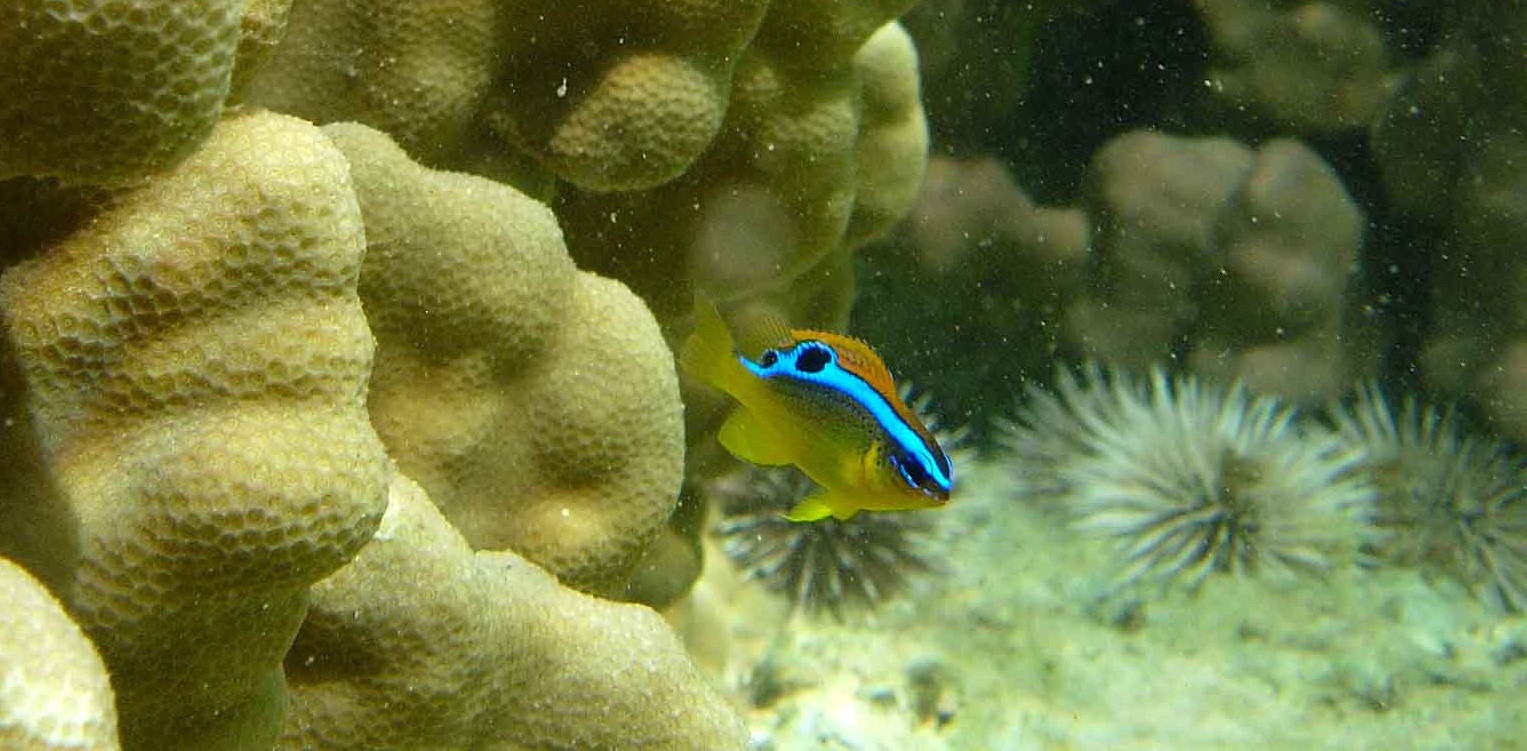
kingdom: Animalia
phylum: Chordata
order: Perciformes
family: Pomacentridae
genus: Chrysiptera
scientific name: Chrysiptera brownriggii
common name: Surge demoiselle
